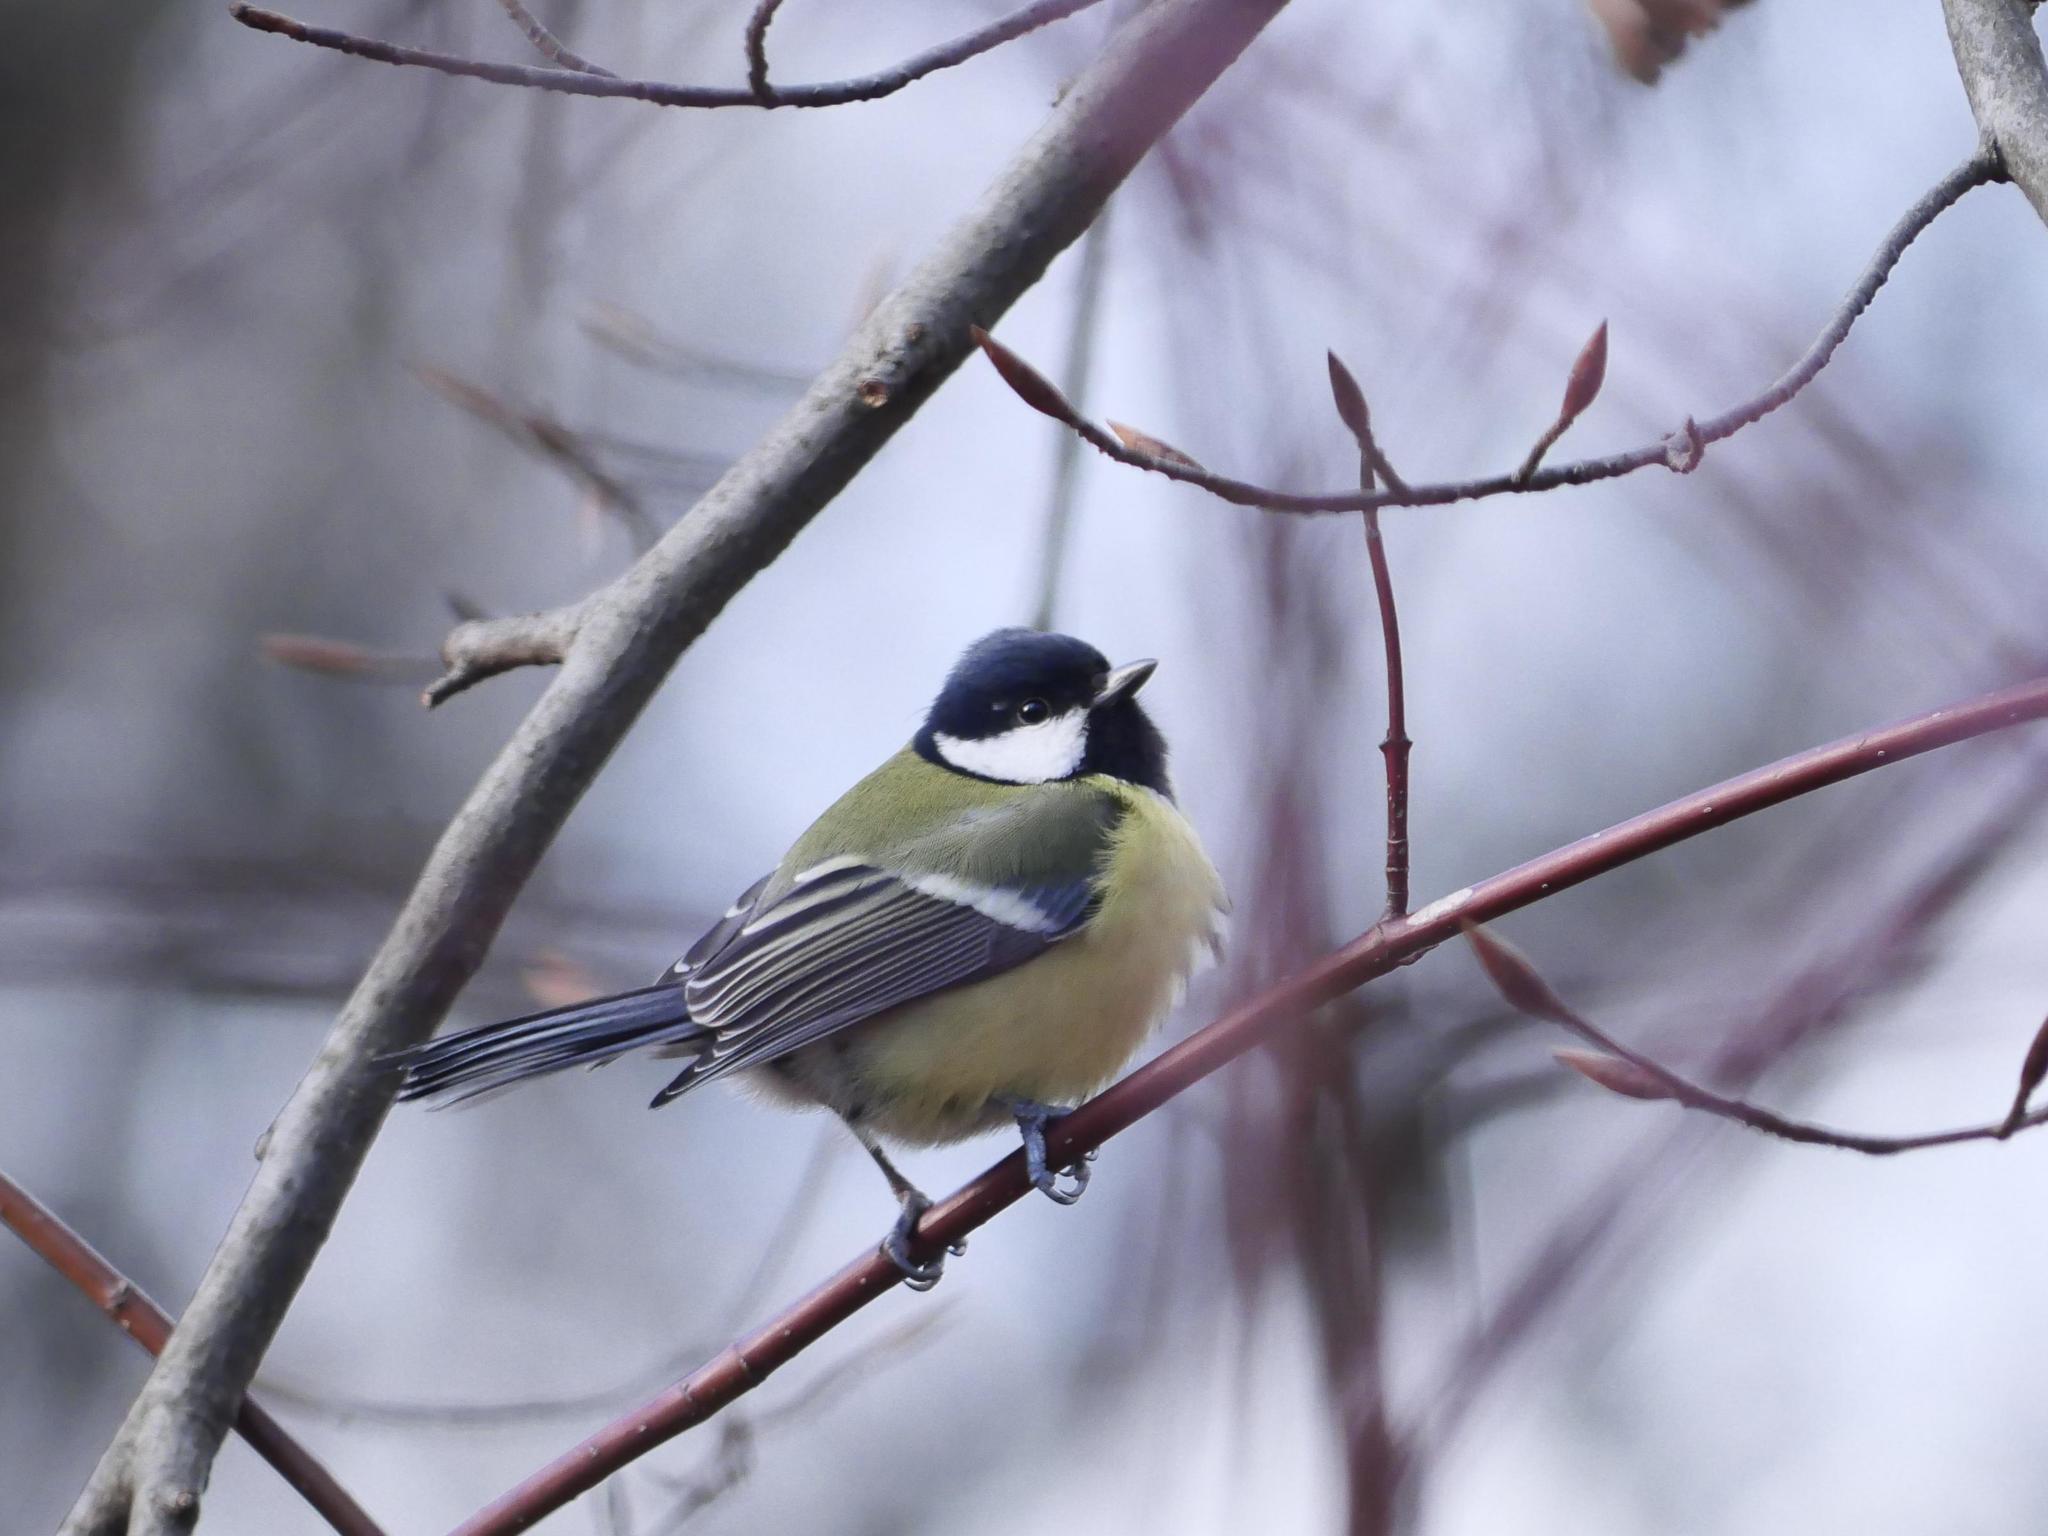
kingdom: Animalia
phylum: Chordata
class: Aves
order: Passeriformes
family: Paridae
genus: Parus
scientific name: Parus major
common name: Great tit
